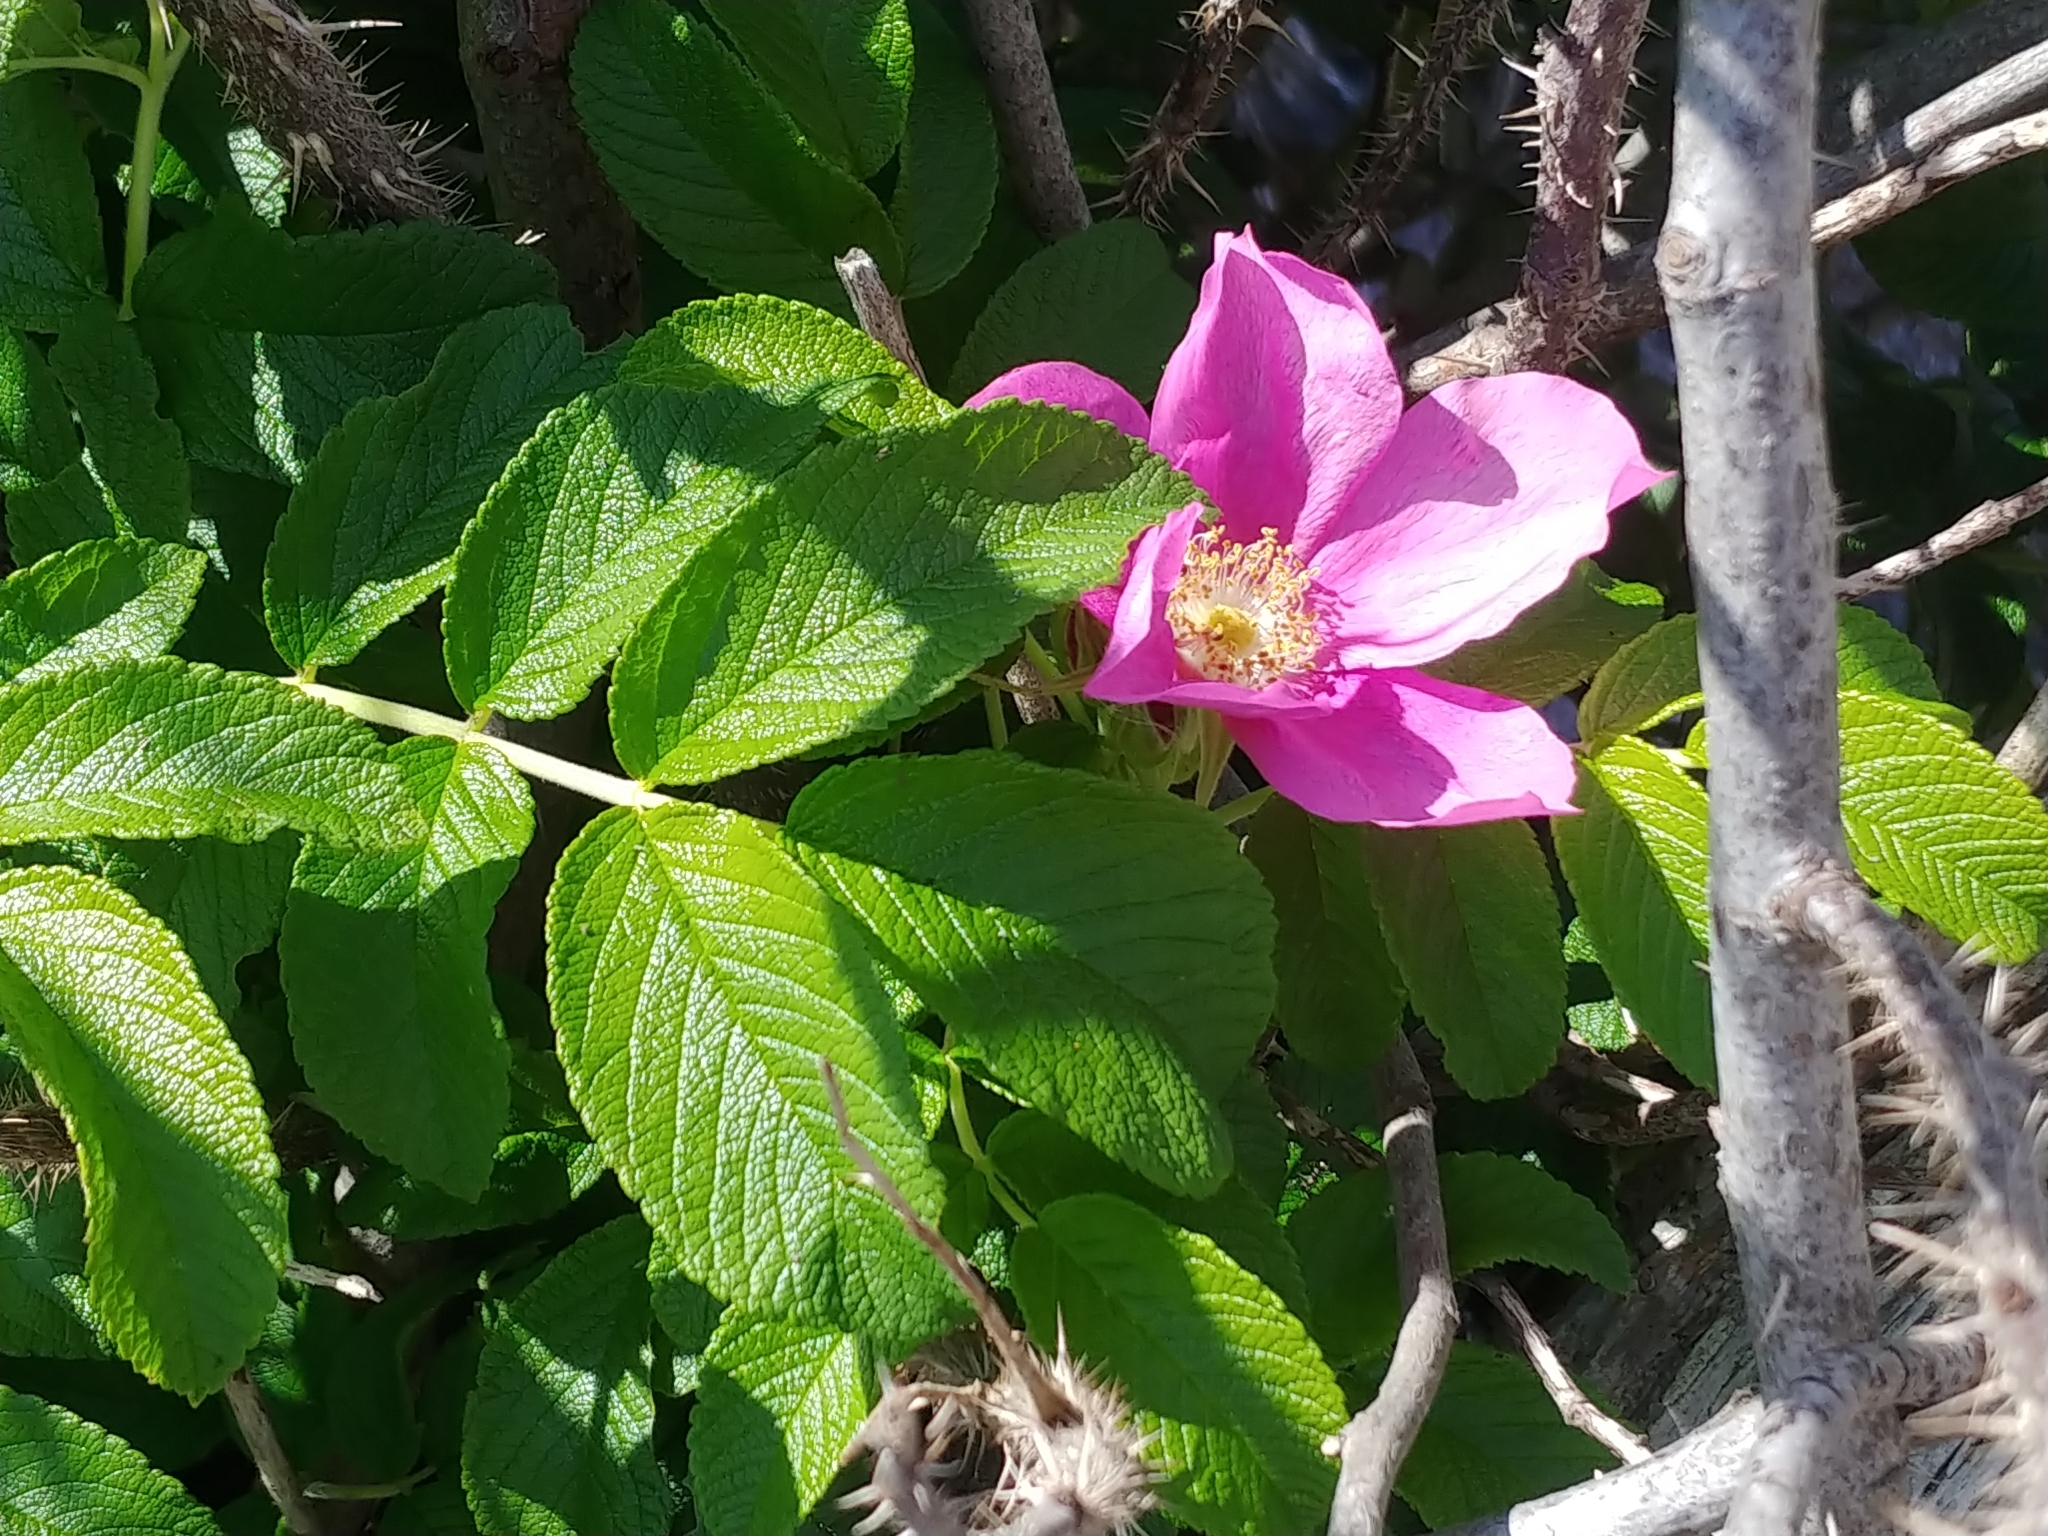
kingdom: Plantae
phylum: Tracheophyta
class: Magnoliopsida
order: Rosales
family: Rosaceae
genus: Rosa
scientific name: Rosa rugosa
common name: Japanese rose
